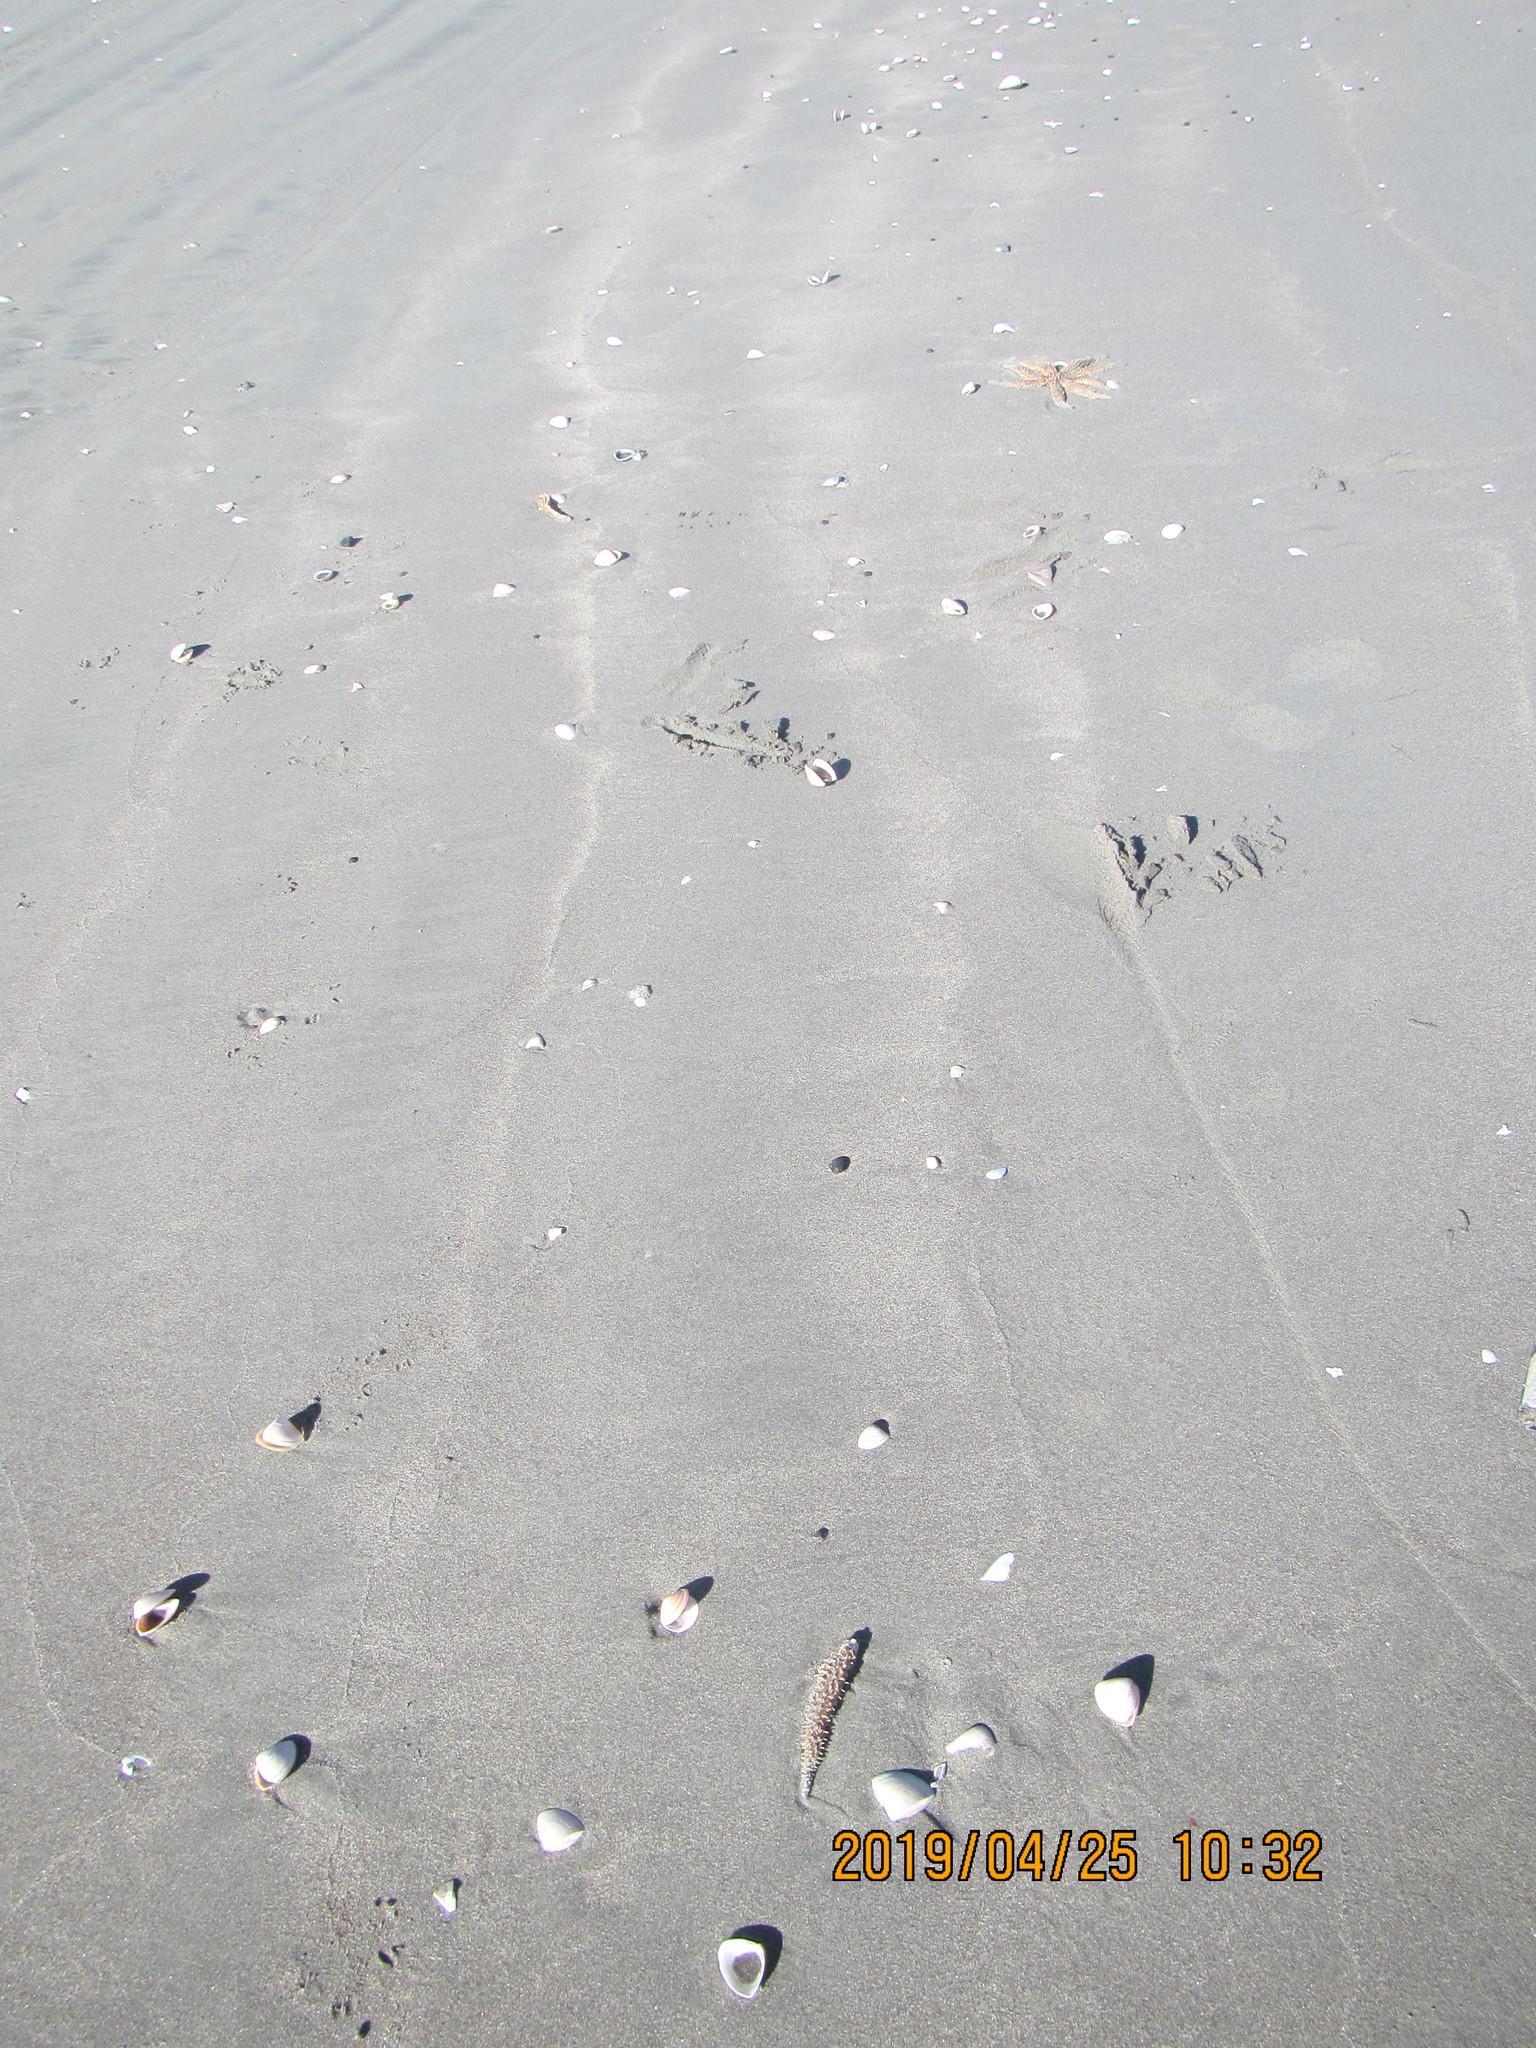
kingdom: Animalia
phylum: Echinodermata
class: Asteroidea
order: Forcipulatida
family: Asteriidae
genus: Coscinasterias
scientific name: Coscinasterias muricata
